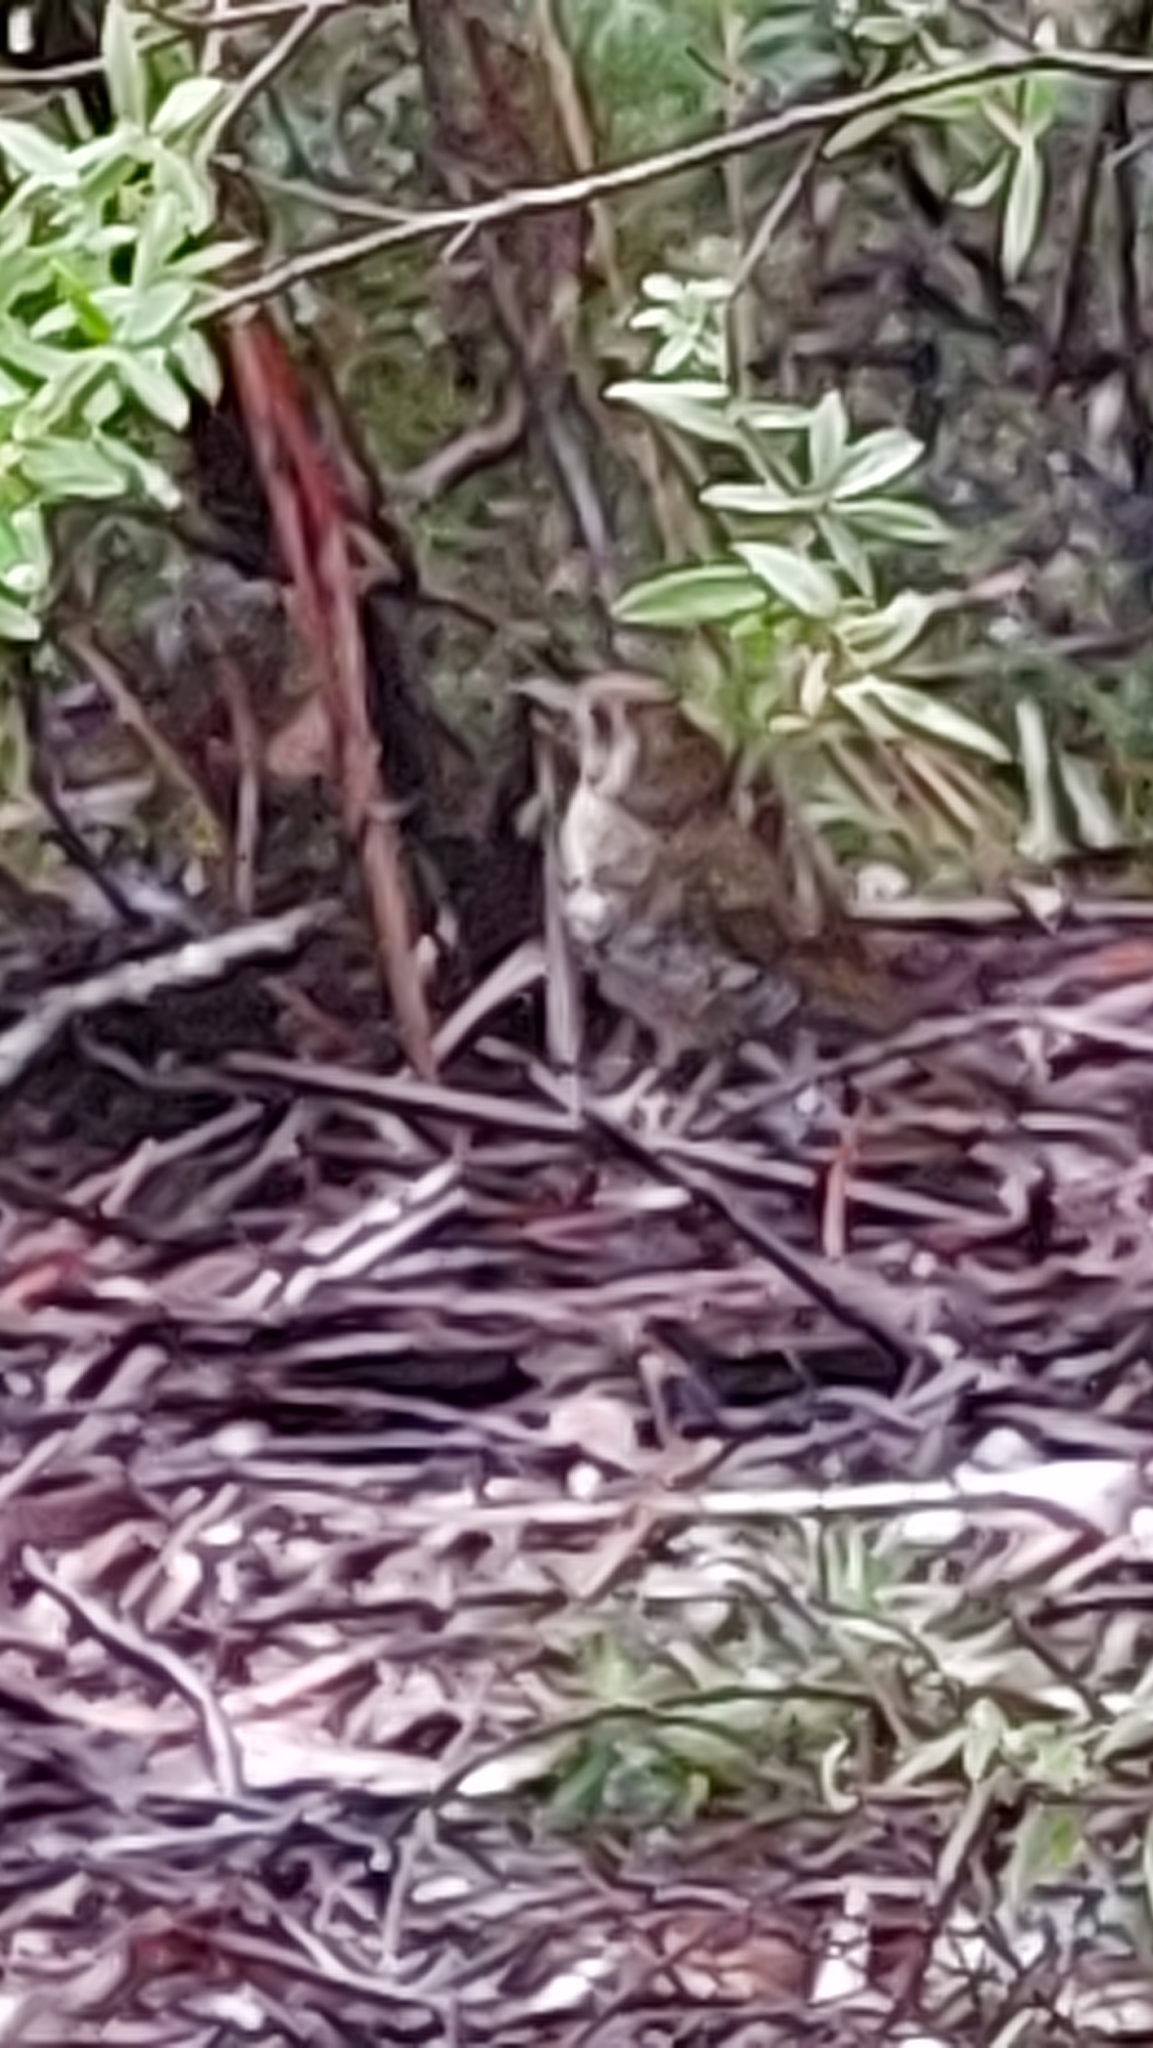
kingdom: Animalia
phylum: Chordata
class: Aves
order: Passeriformes
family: Turdidae
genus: Zoothera
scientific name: Zoothera lunulata
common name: Bassian thrush
